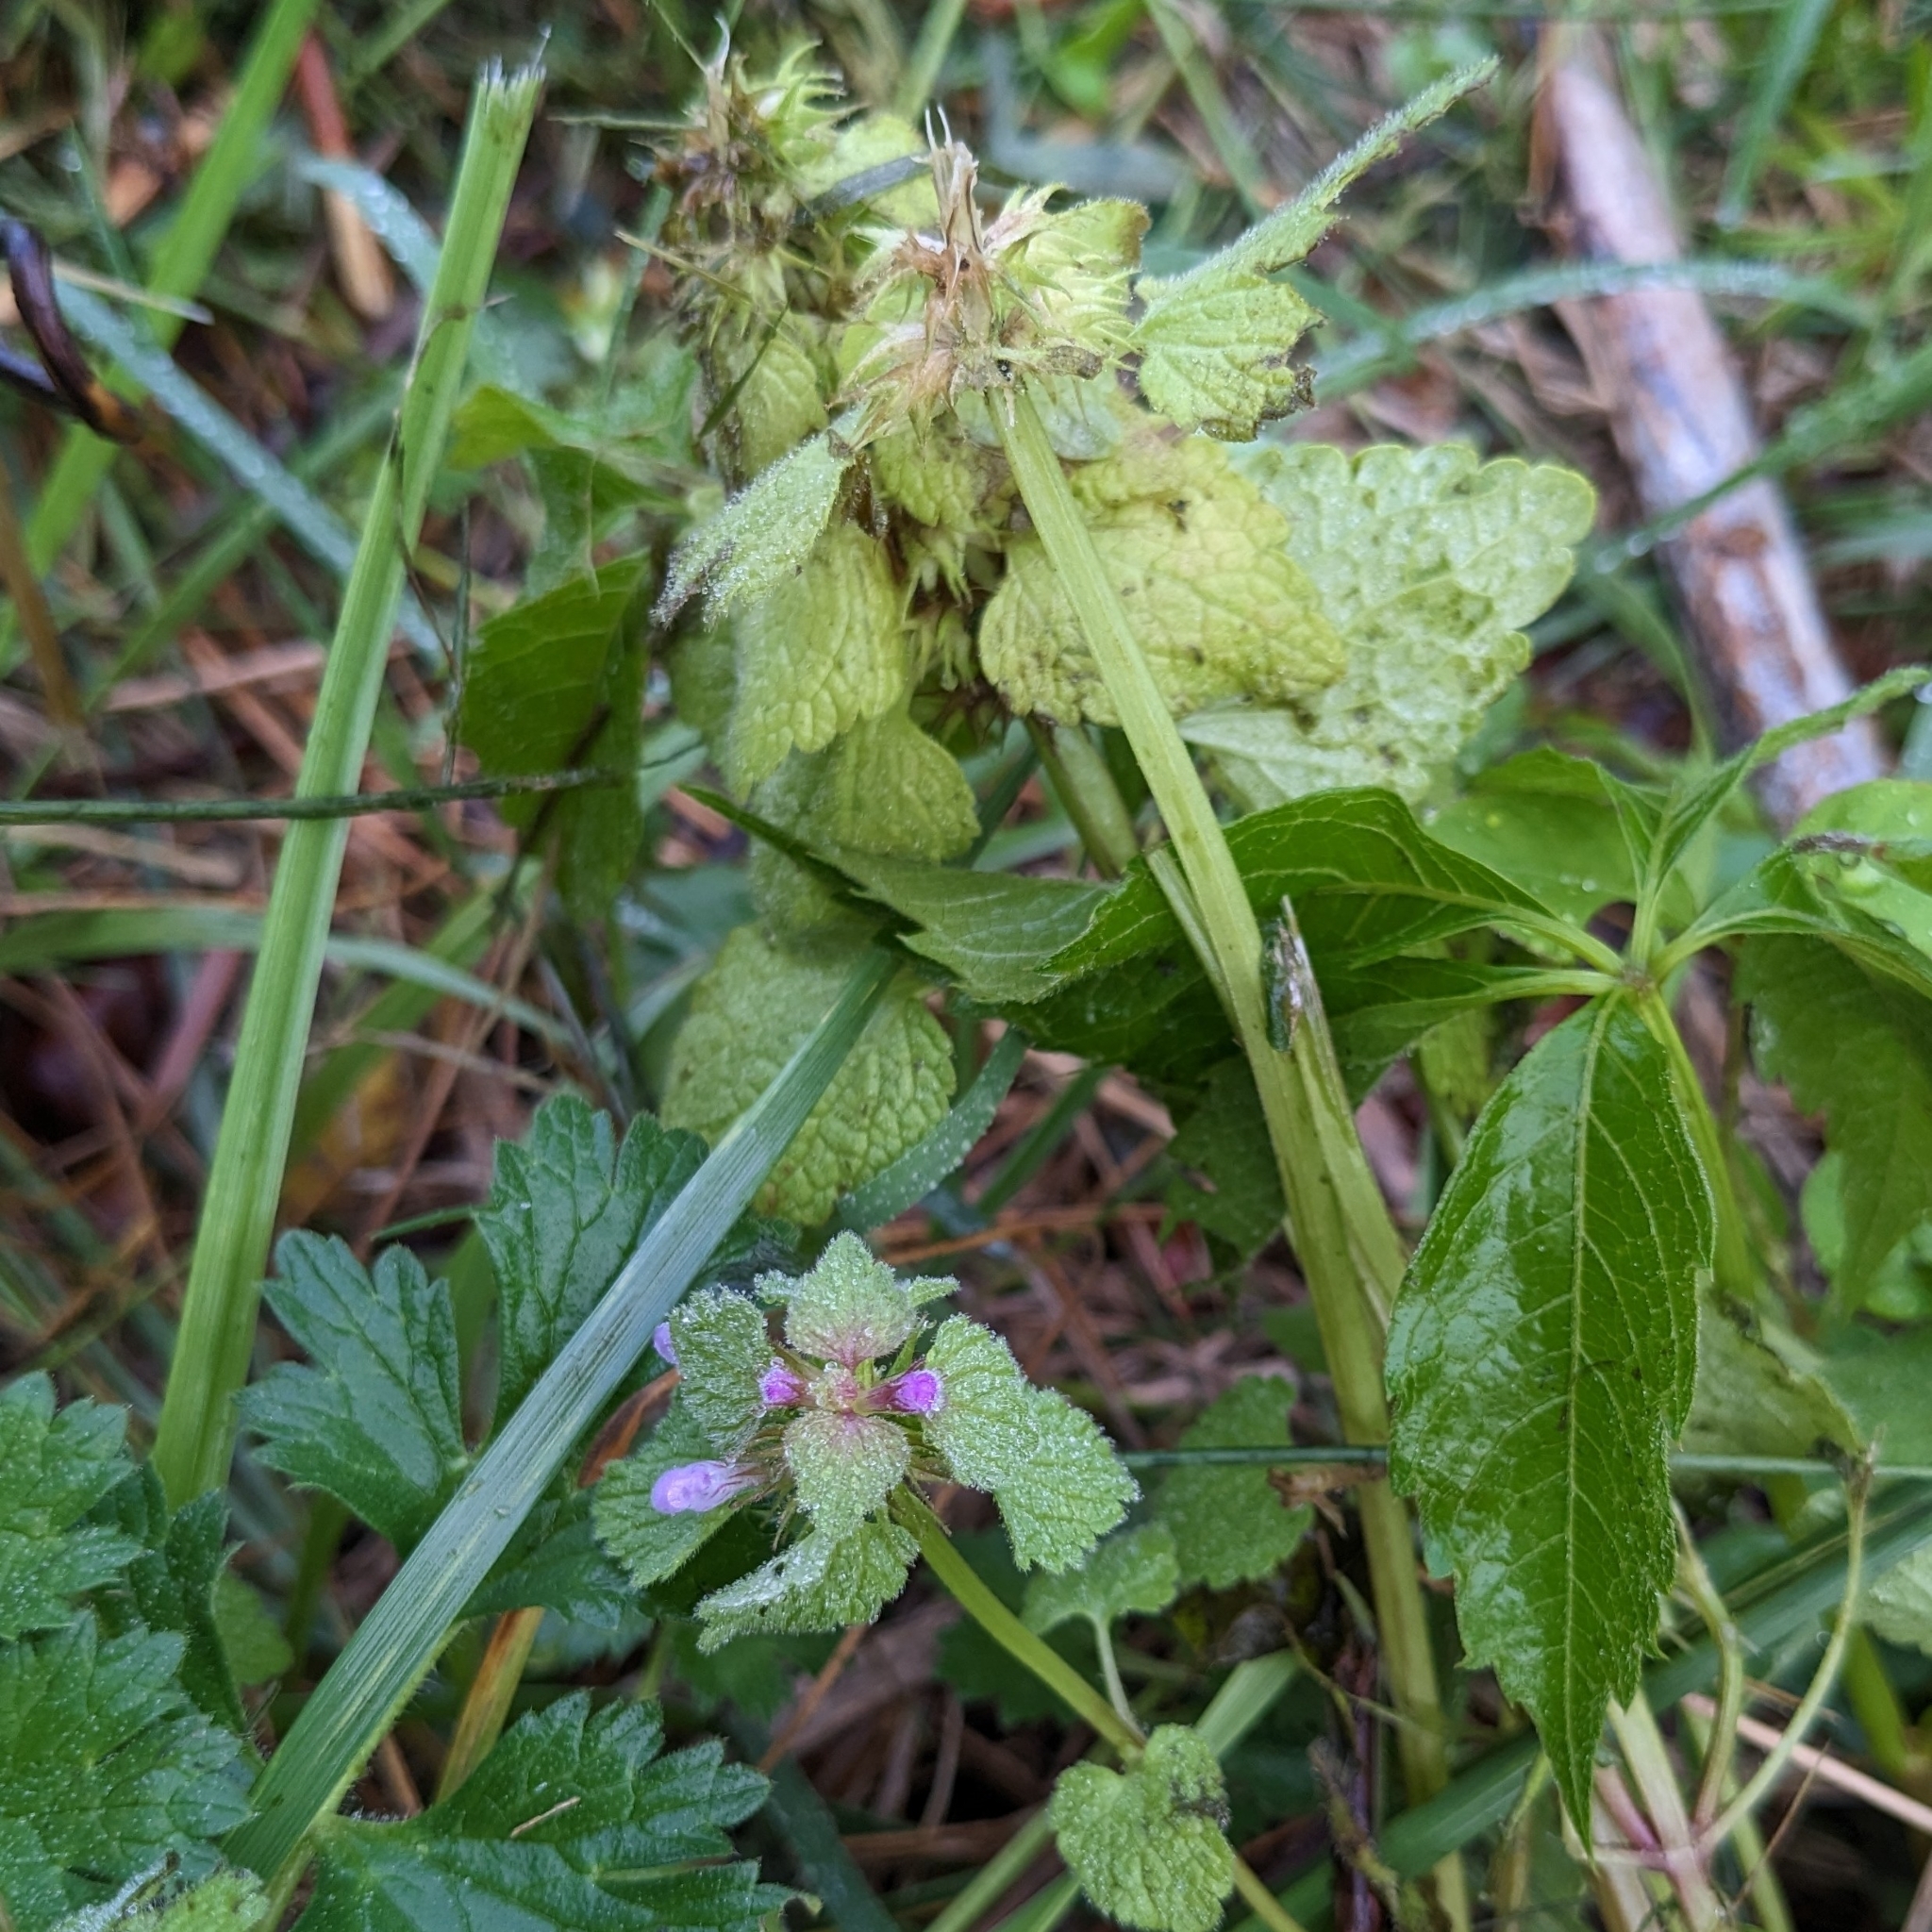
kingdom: Plantae
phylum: Tracheophyta
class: Magnoliopsida
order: Lamiales
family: Lamiaceae
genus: Lamium
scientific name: Lamium purpureum
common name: Red dead-nettle
